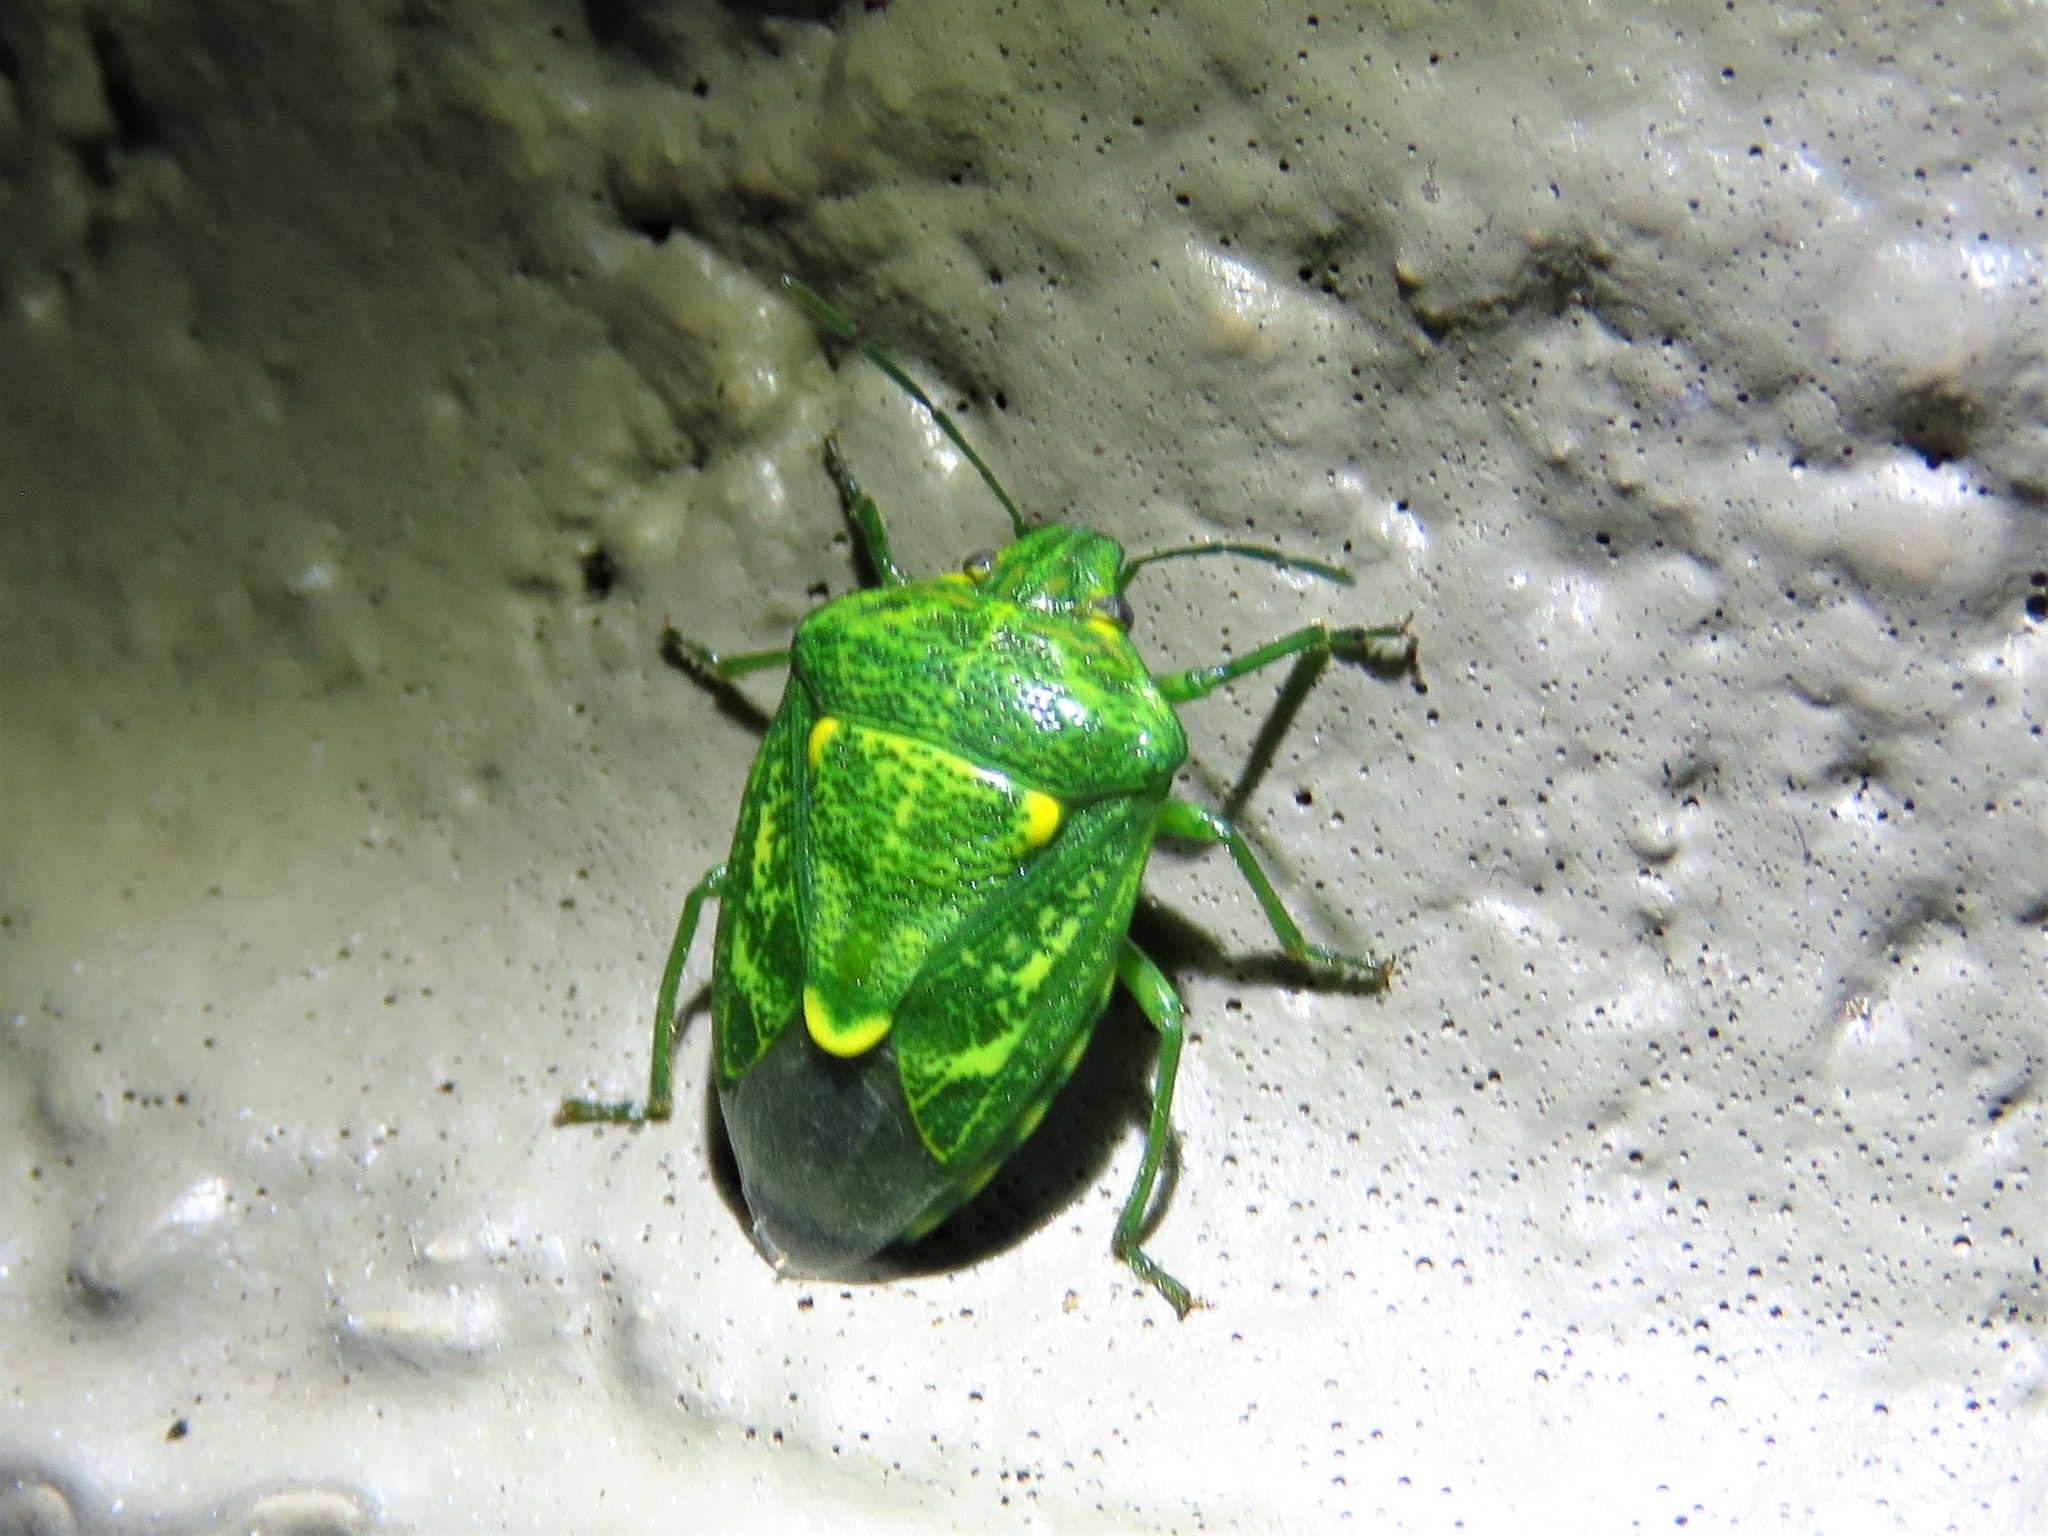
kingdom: Animalia
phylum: Arthropoda
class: Insecta
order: Hemiptera
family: Pentatomidae
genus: Banasa
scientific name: Banasa euchlora
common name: Cedar berry bug
